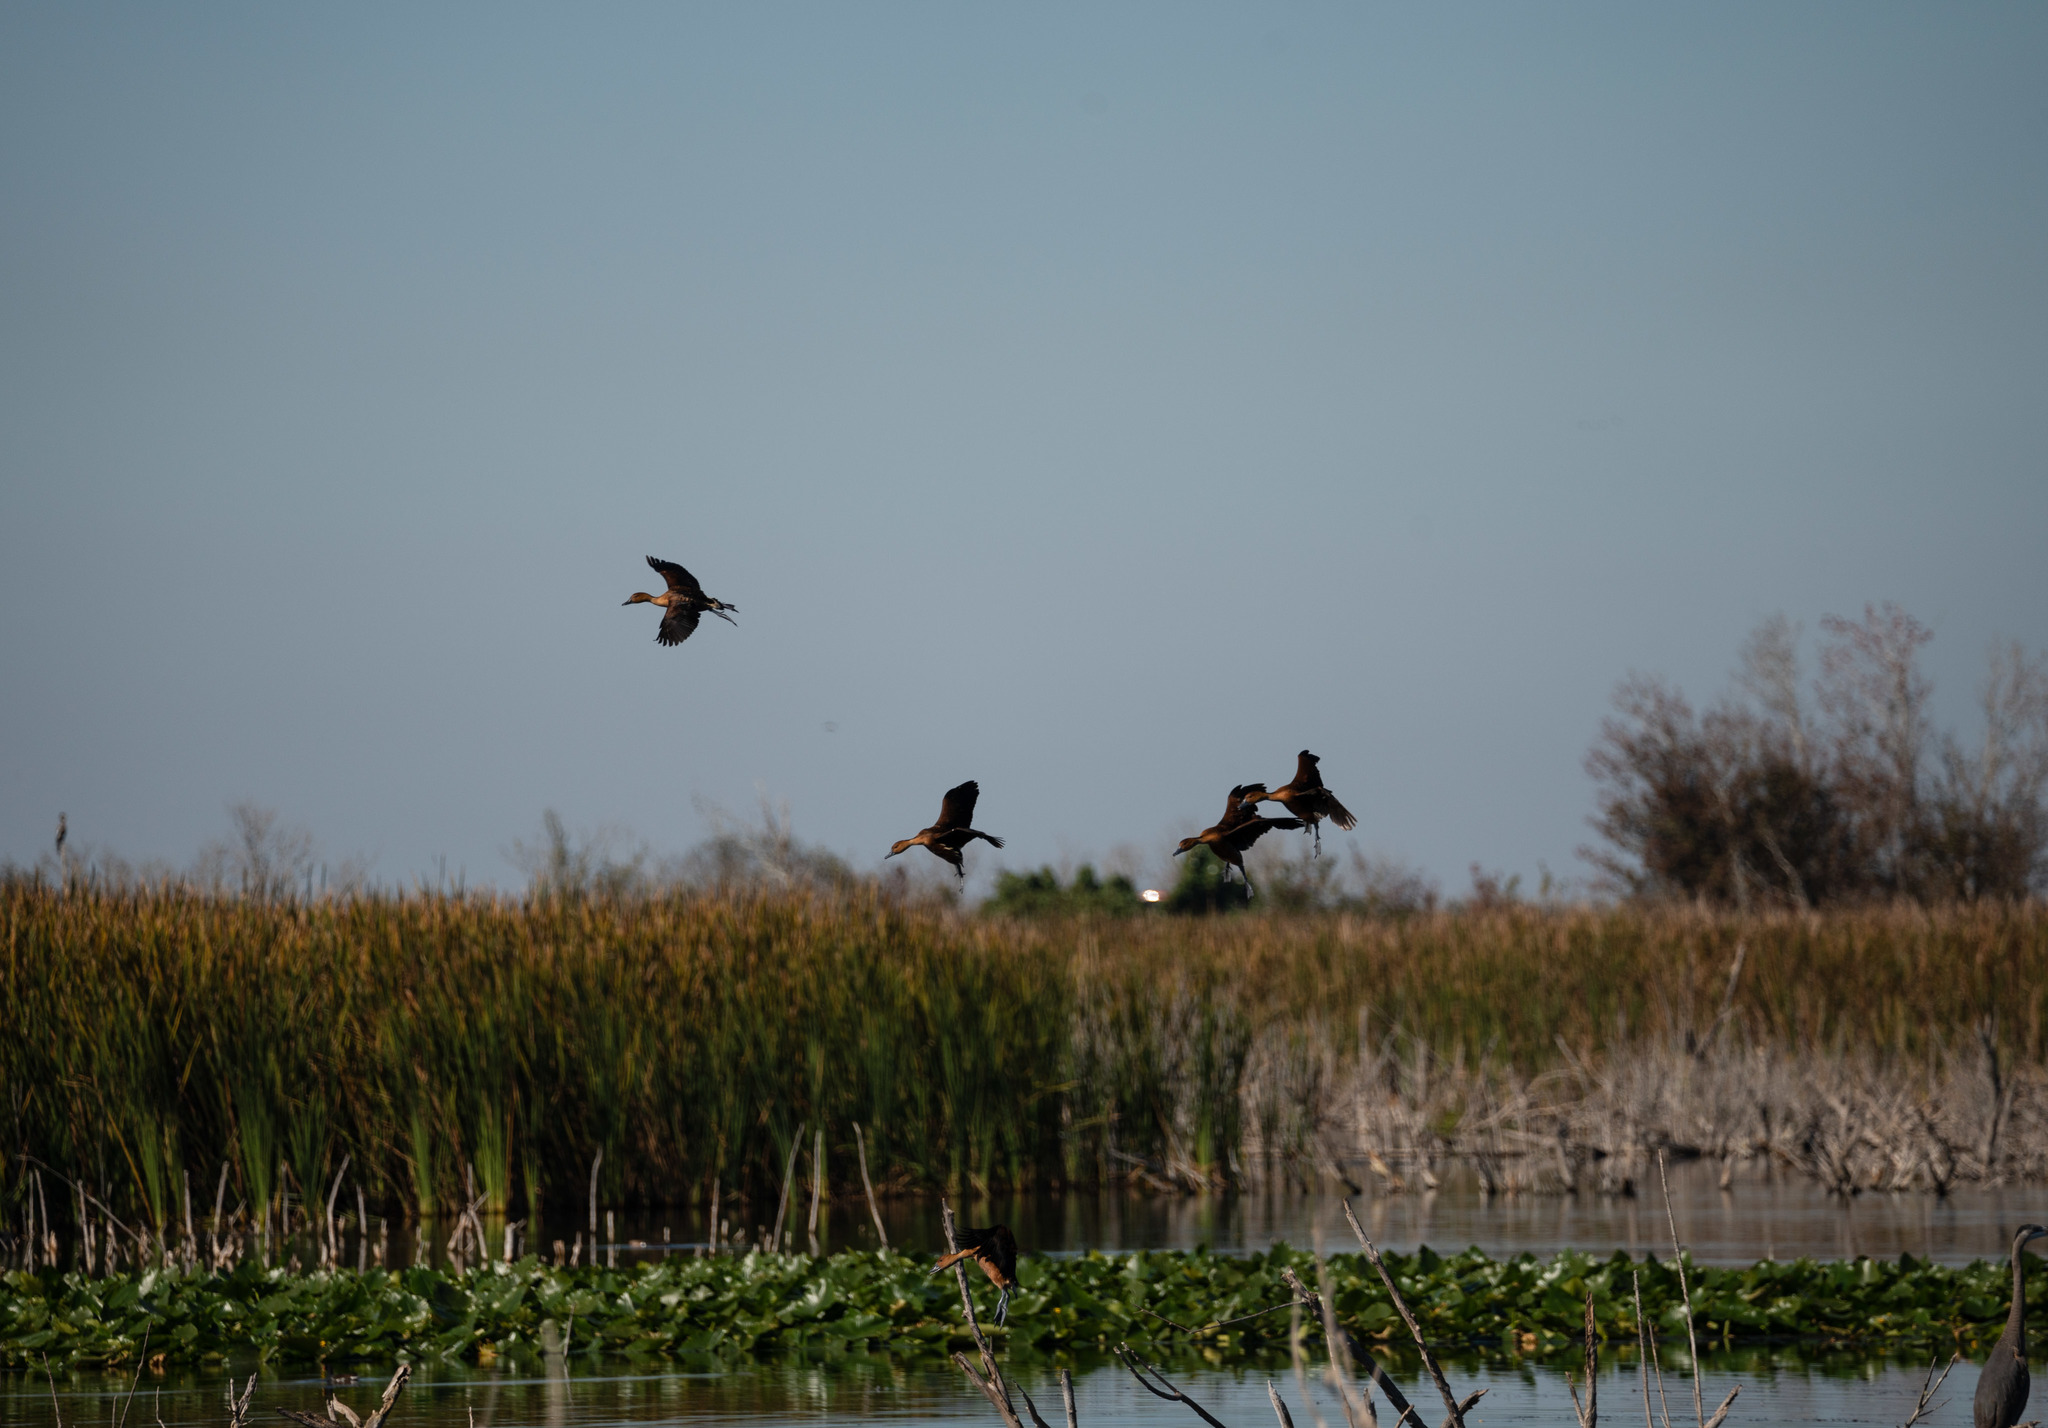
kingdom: Animalia
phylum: Chordata
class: Aves
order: Anseriformes
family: Anatidae
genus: Dendrocygna
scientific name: Dendrocygna bicolor
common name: Fulvous whistling duck
